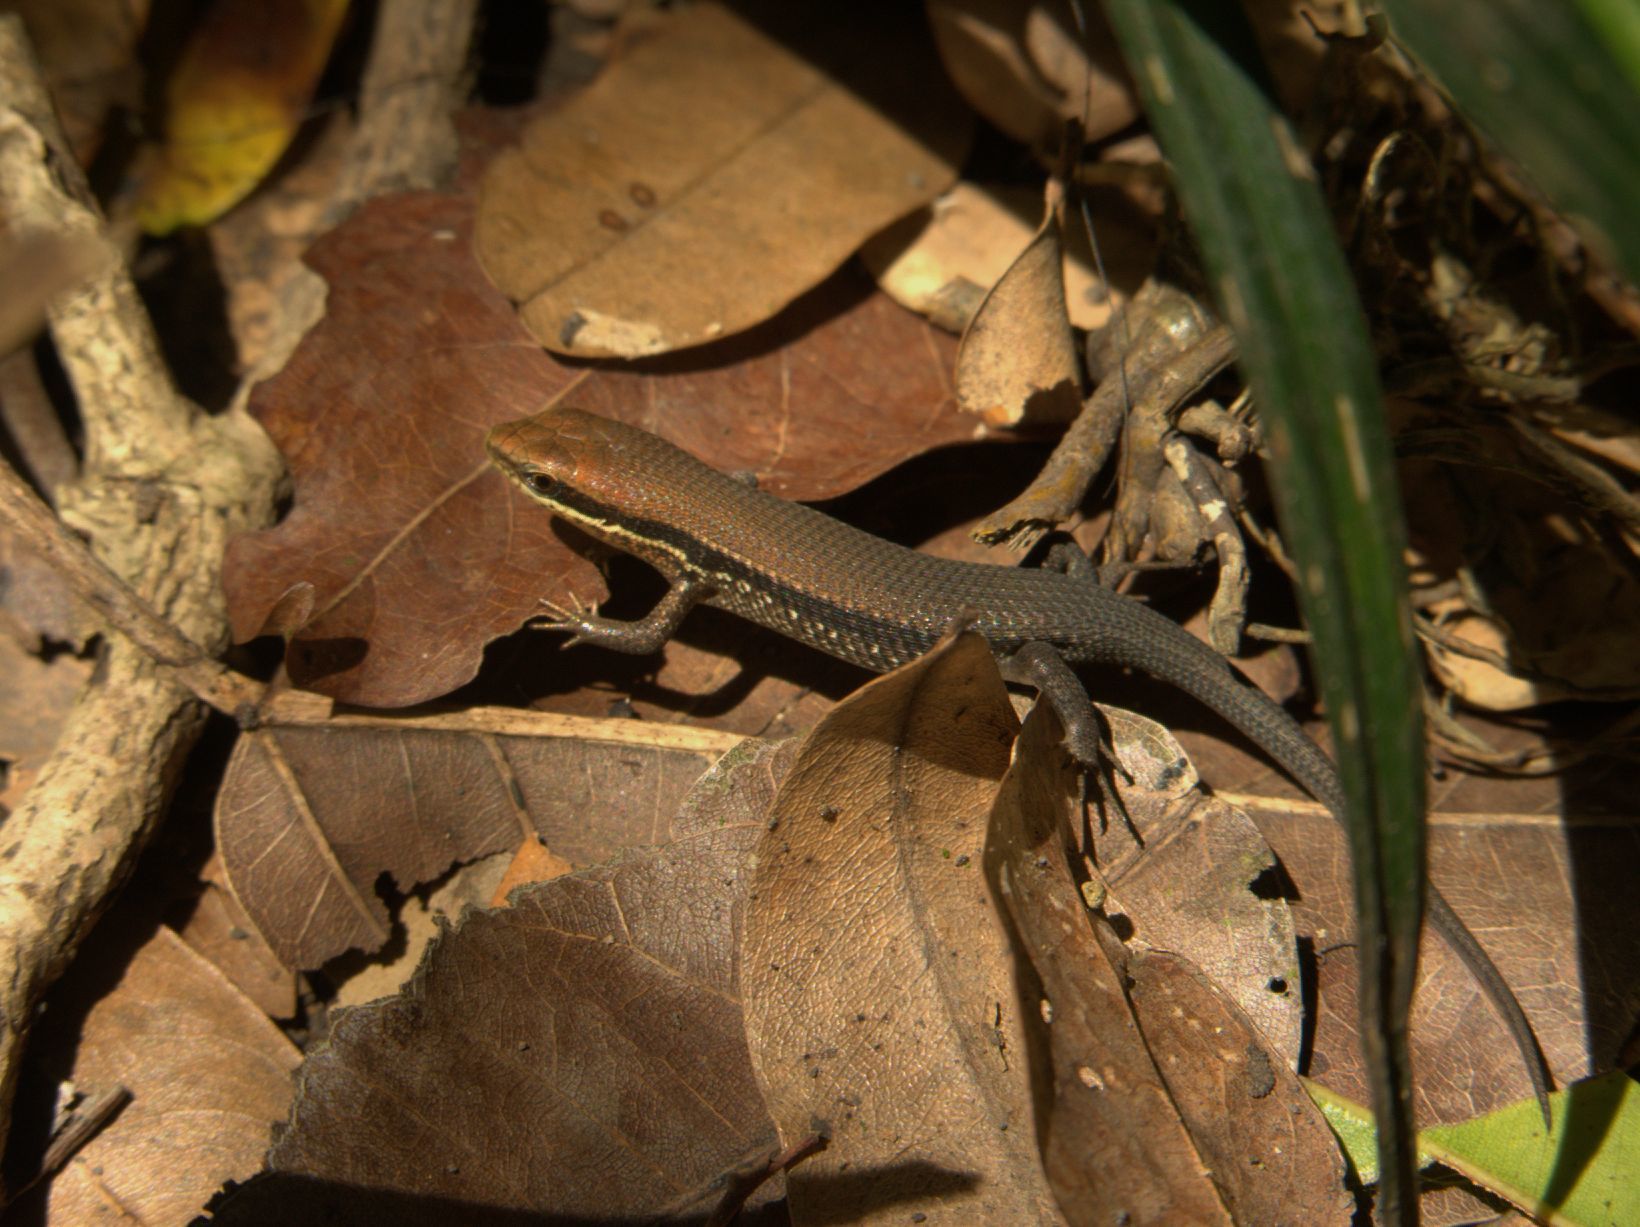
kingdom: Animalia
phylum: Chordata
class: Squamata
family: Scincidae
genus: Eutropis
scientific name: Eutropis macularia
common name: Bronze mabuya
